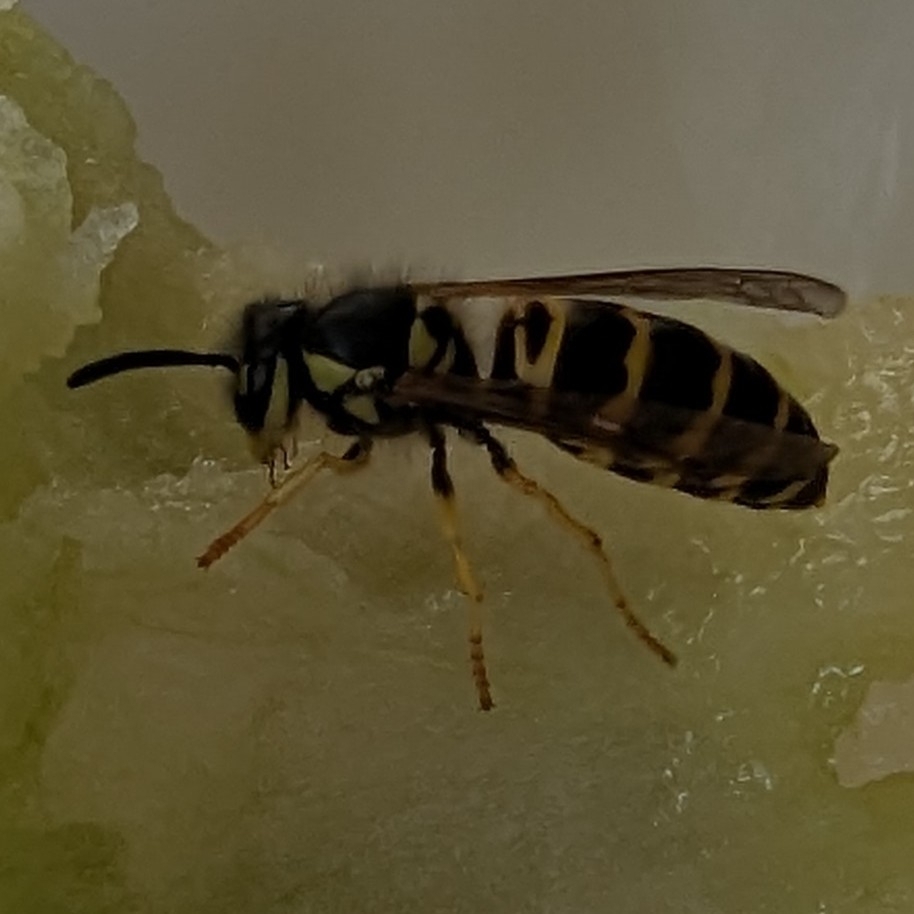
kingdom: Animalia
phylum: Arthropoda
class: Insecta
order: Hymenoptera
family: Vespidae
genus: Vespula
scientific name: Vespula maculifrons
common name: Eastern yellowjacket
